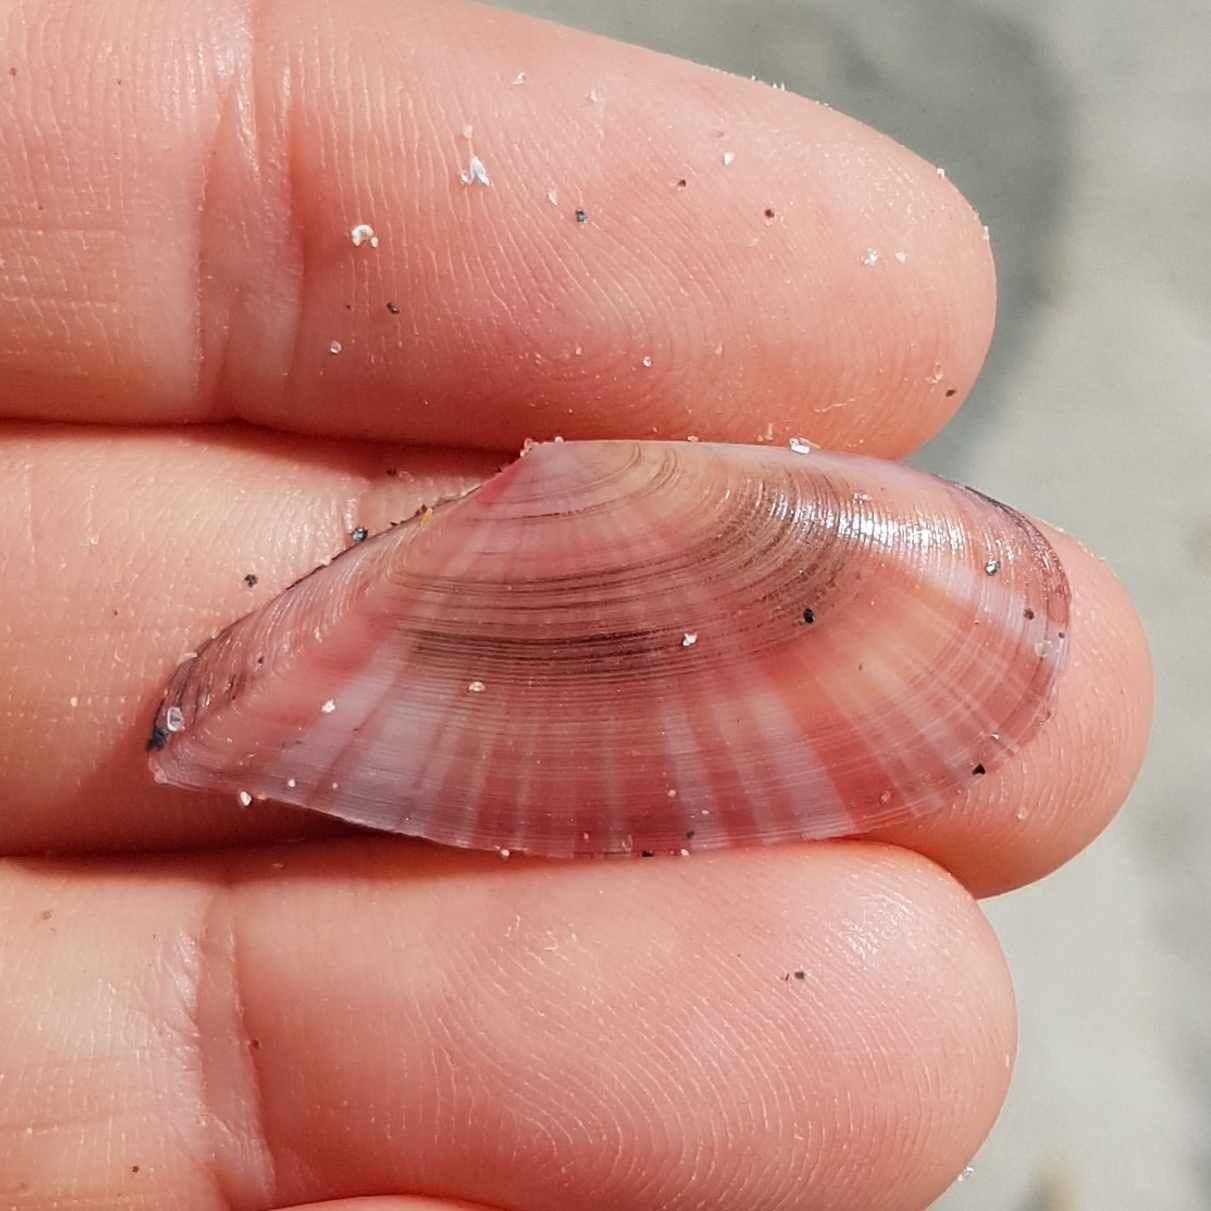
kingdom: Animalia
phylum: Mollusca
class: Bivalvia
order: Cardiida
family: Tellinidae
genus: Moerella
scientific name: Moerella pulchella
